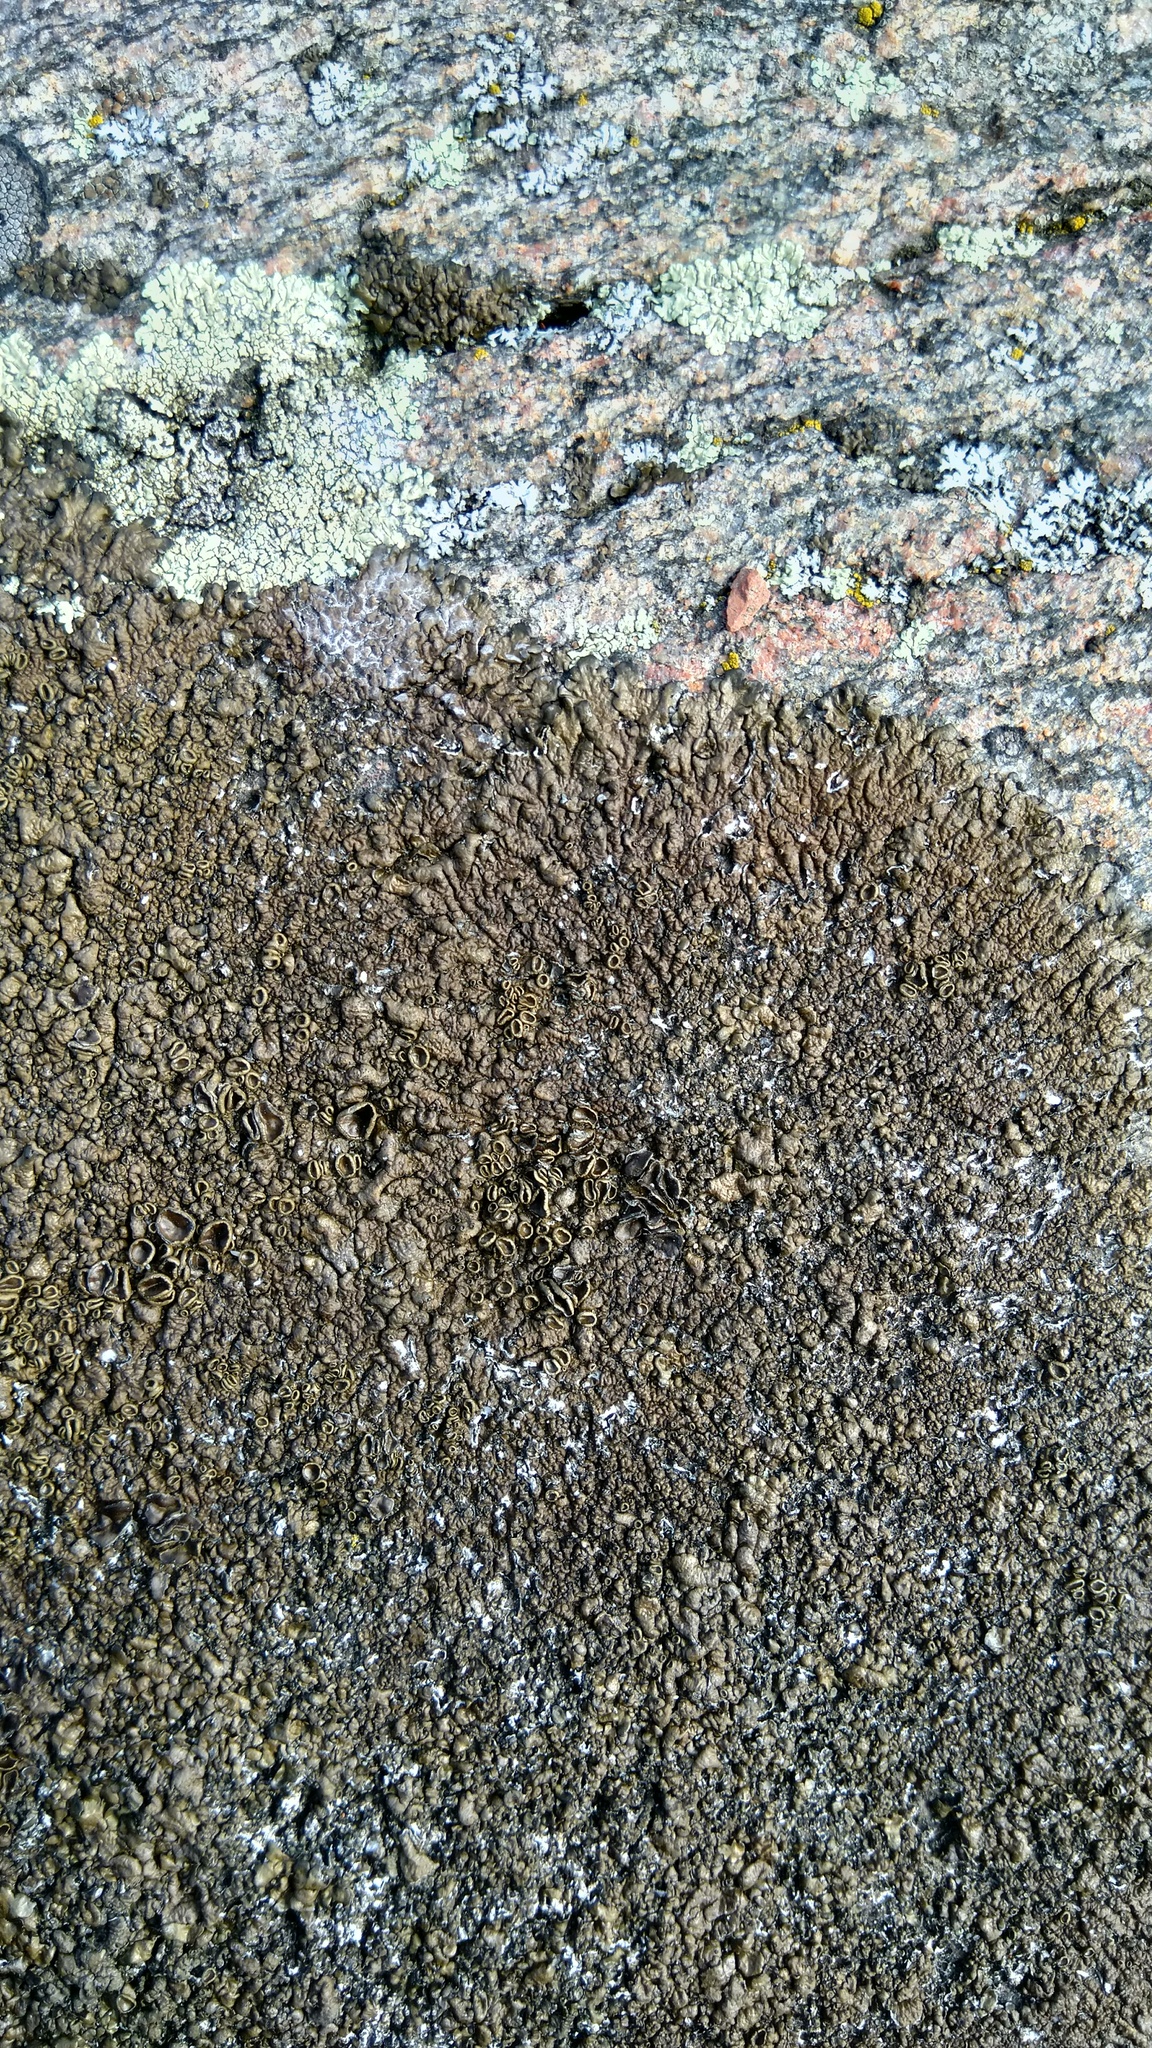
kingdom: Fungi
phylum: Ascomycota
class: Lecanoromycetes
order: Lecanorales
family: Parmeliaceae
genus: Xanthoparmelia
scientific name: Xanthoparmelia pulla
